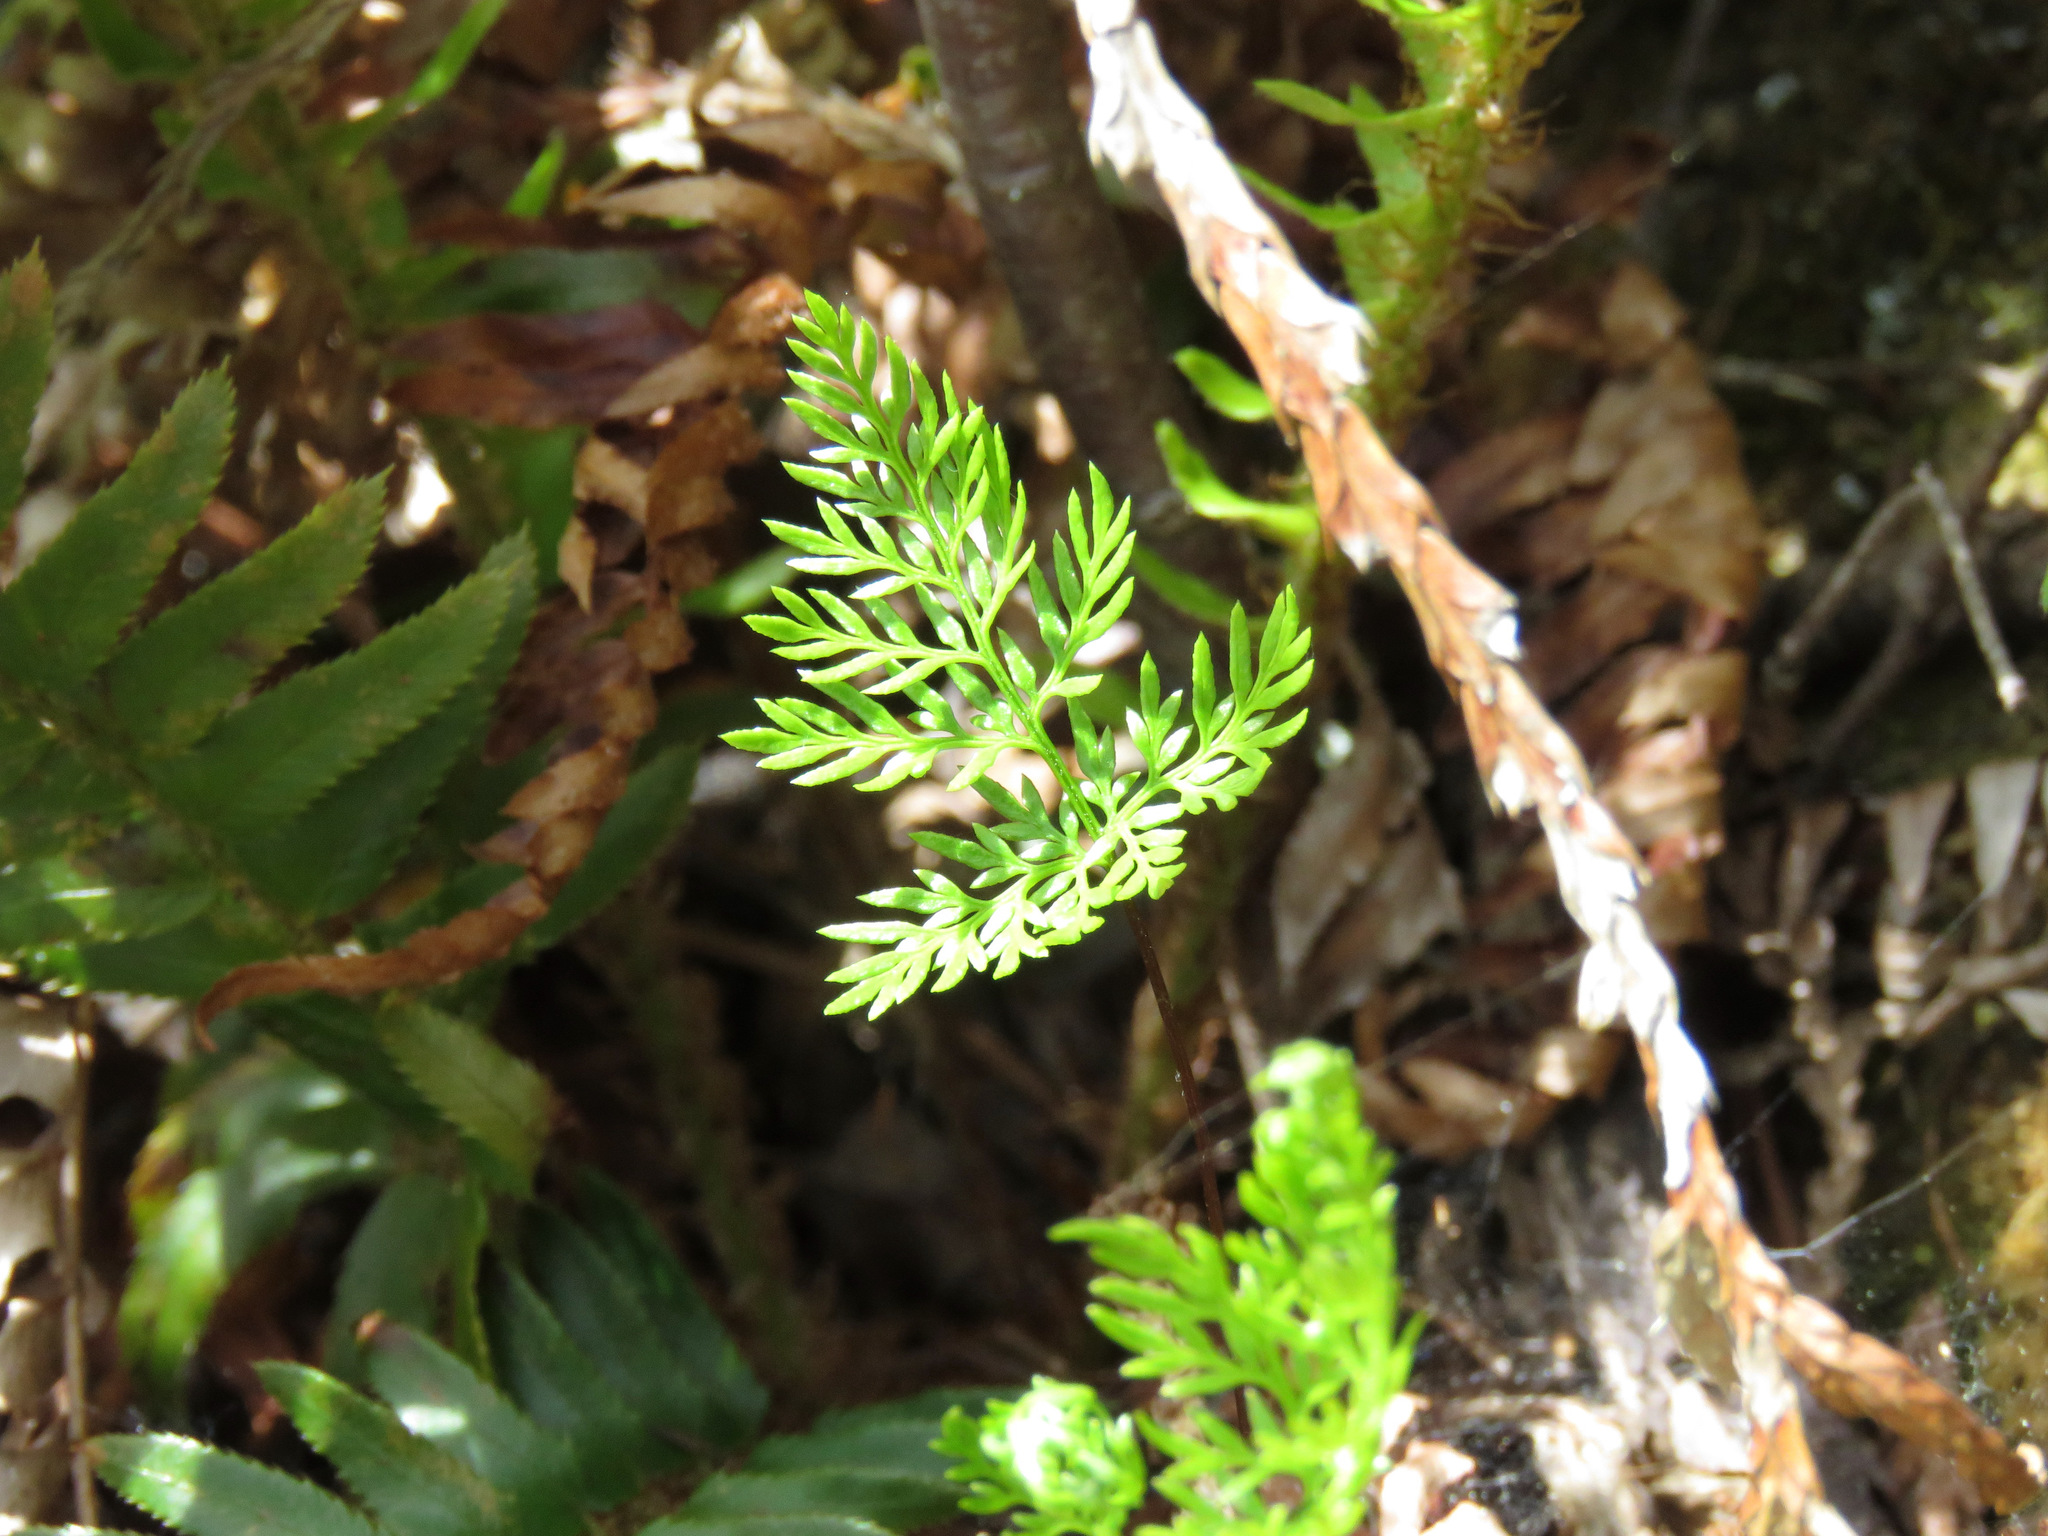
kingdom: Plantae
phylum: Tracheophyta
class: Polypodiopsida
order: Polypodiales
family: Pteridaceae
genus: Aspidotis
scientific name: Aspidotis densa
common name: Indian's dream
